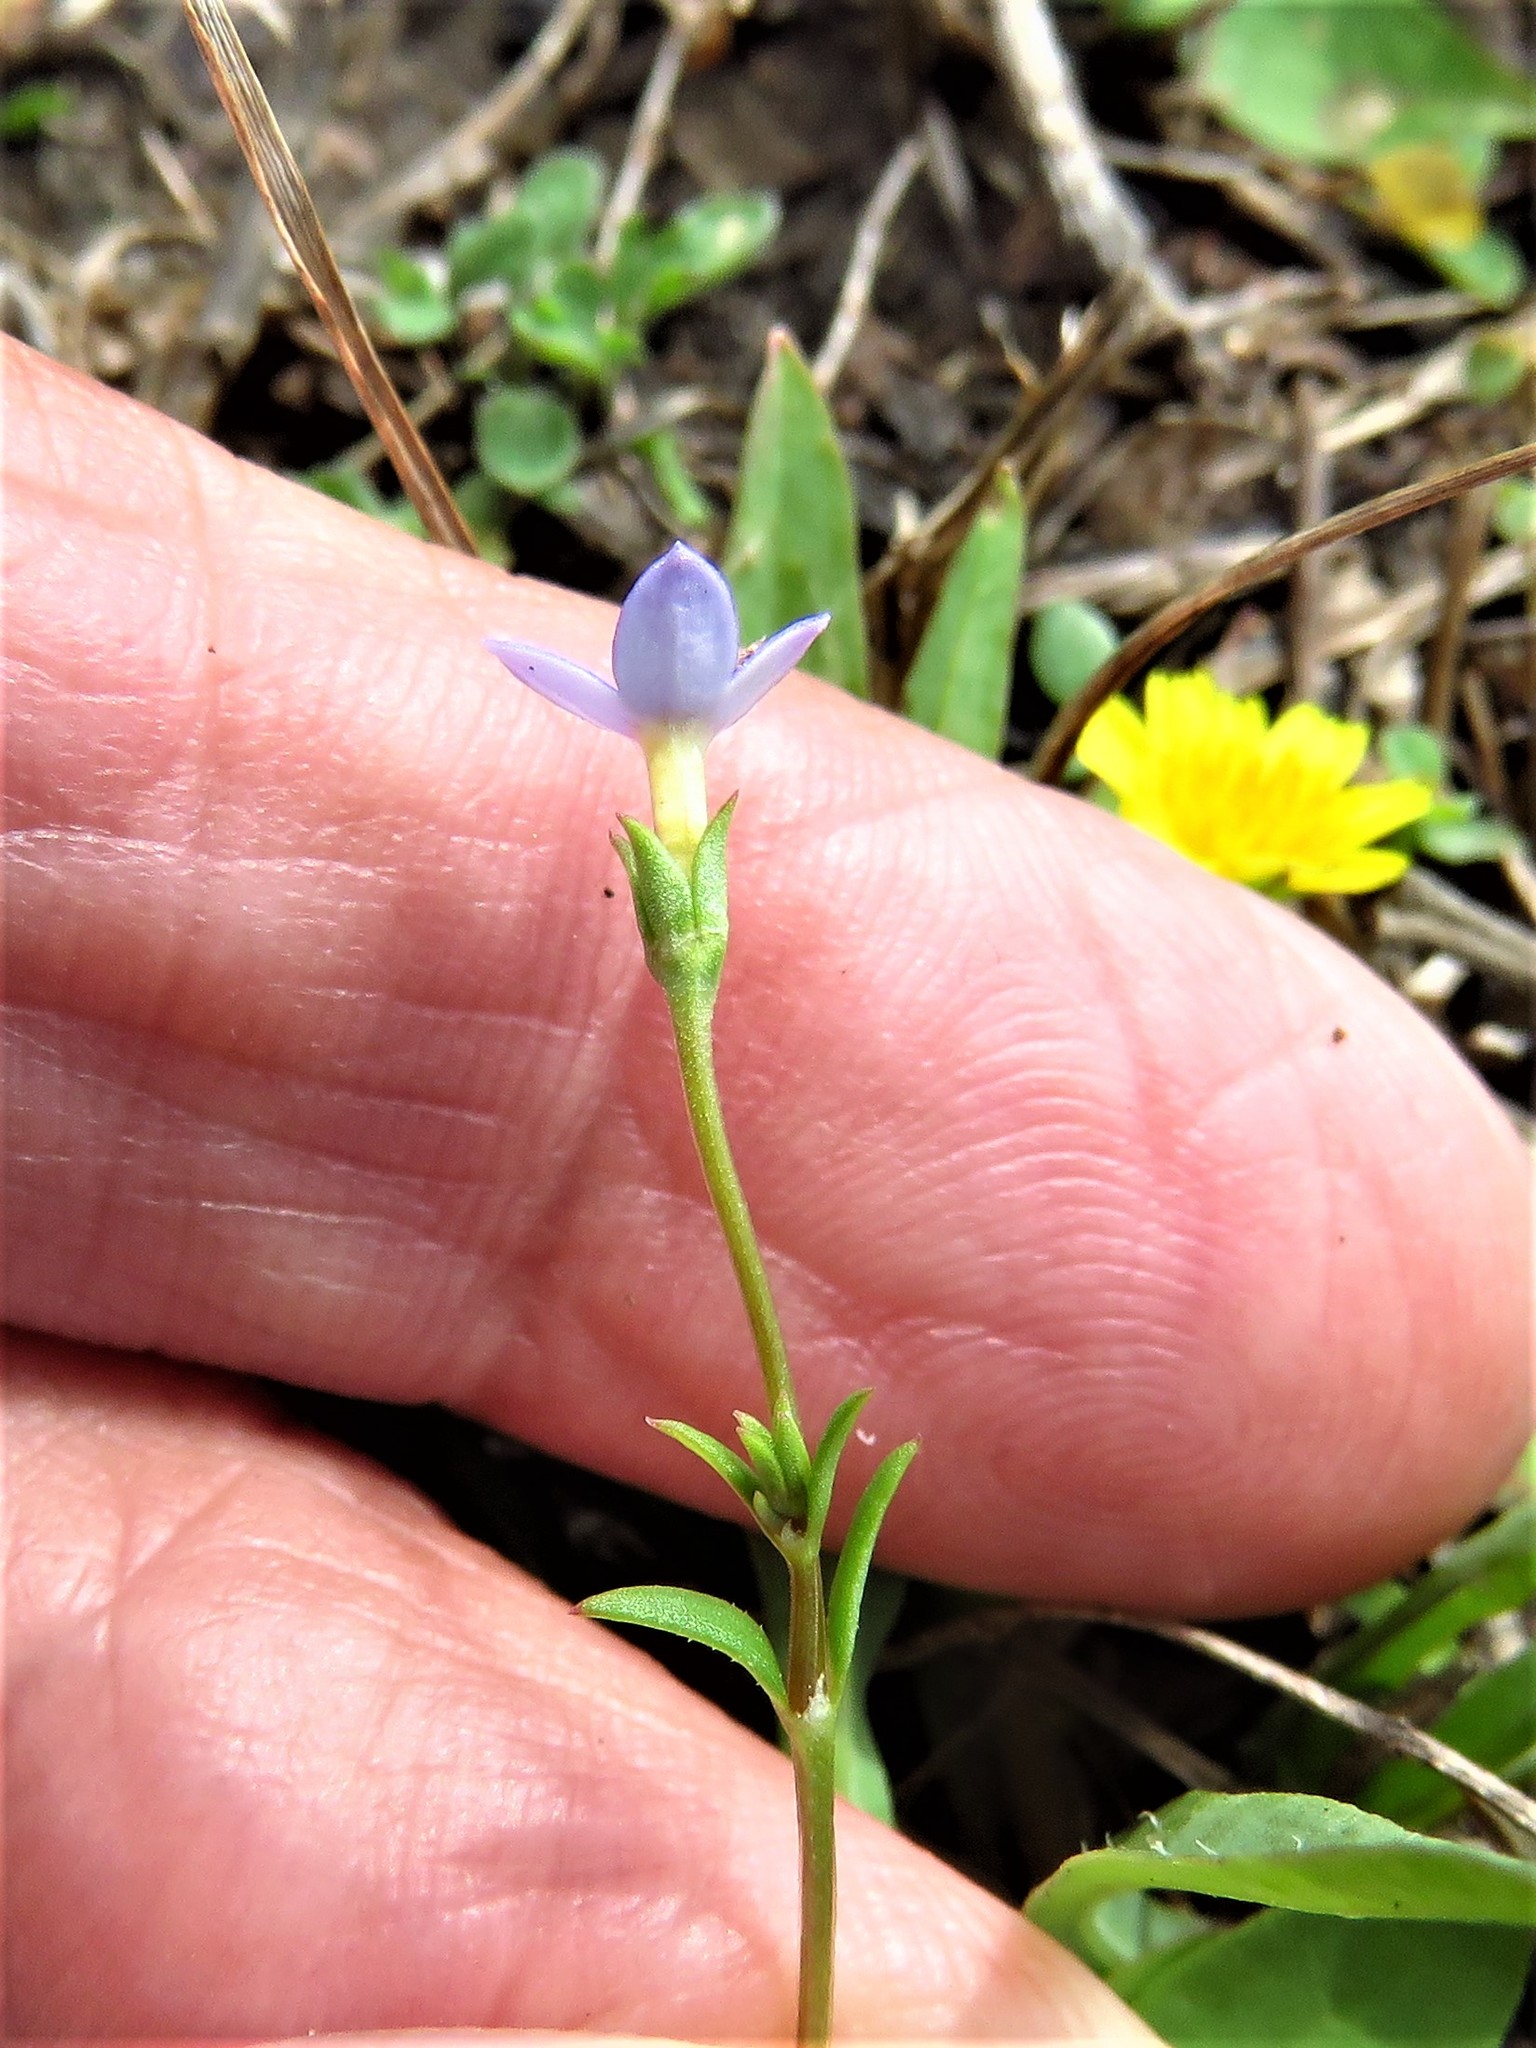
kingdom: Plantae
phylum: Tracheophyta
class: Magnoliopsida
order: Gentianales
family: Rubiaceae
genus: Houstonia
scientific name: Houstonia pusilla
